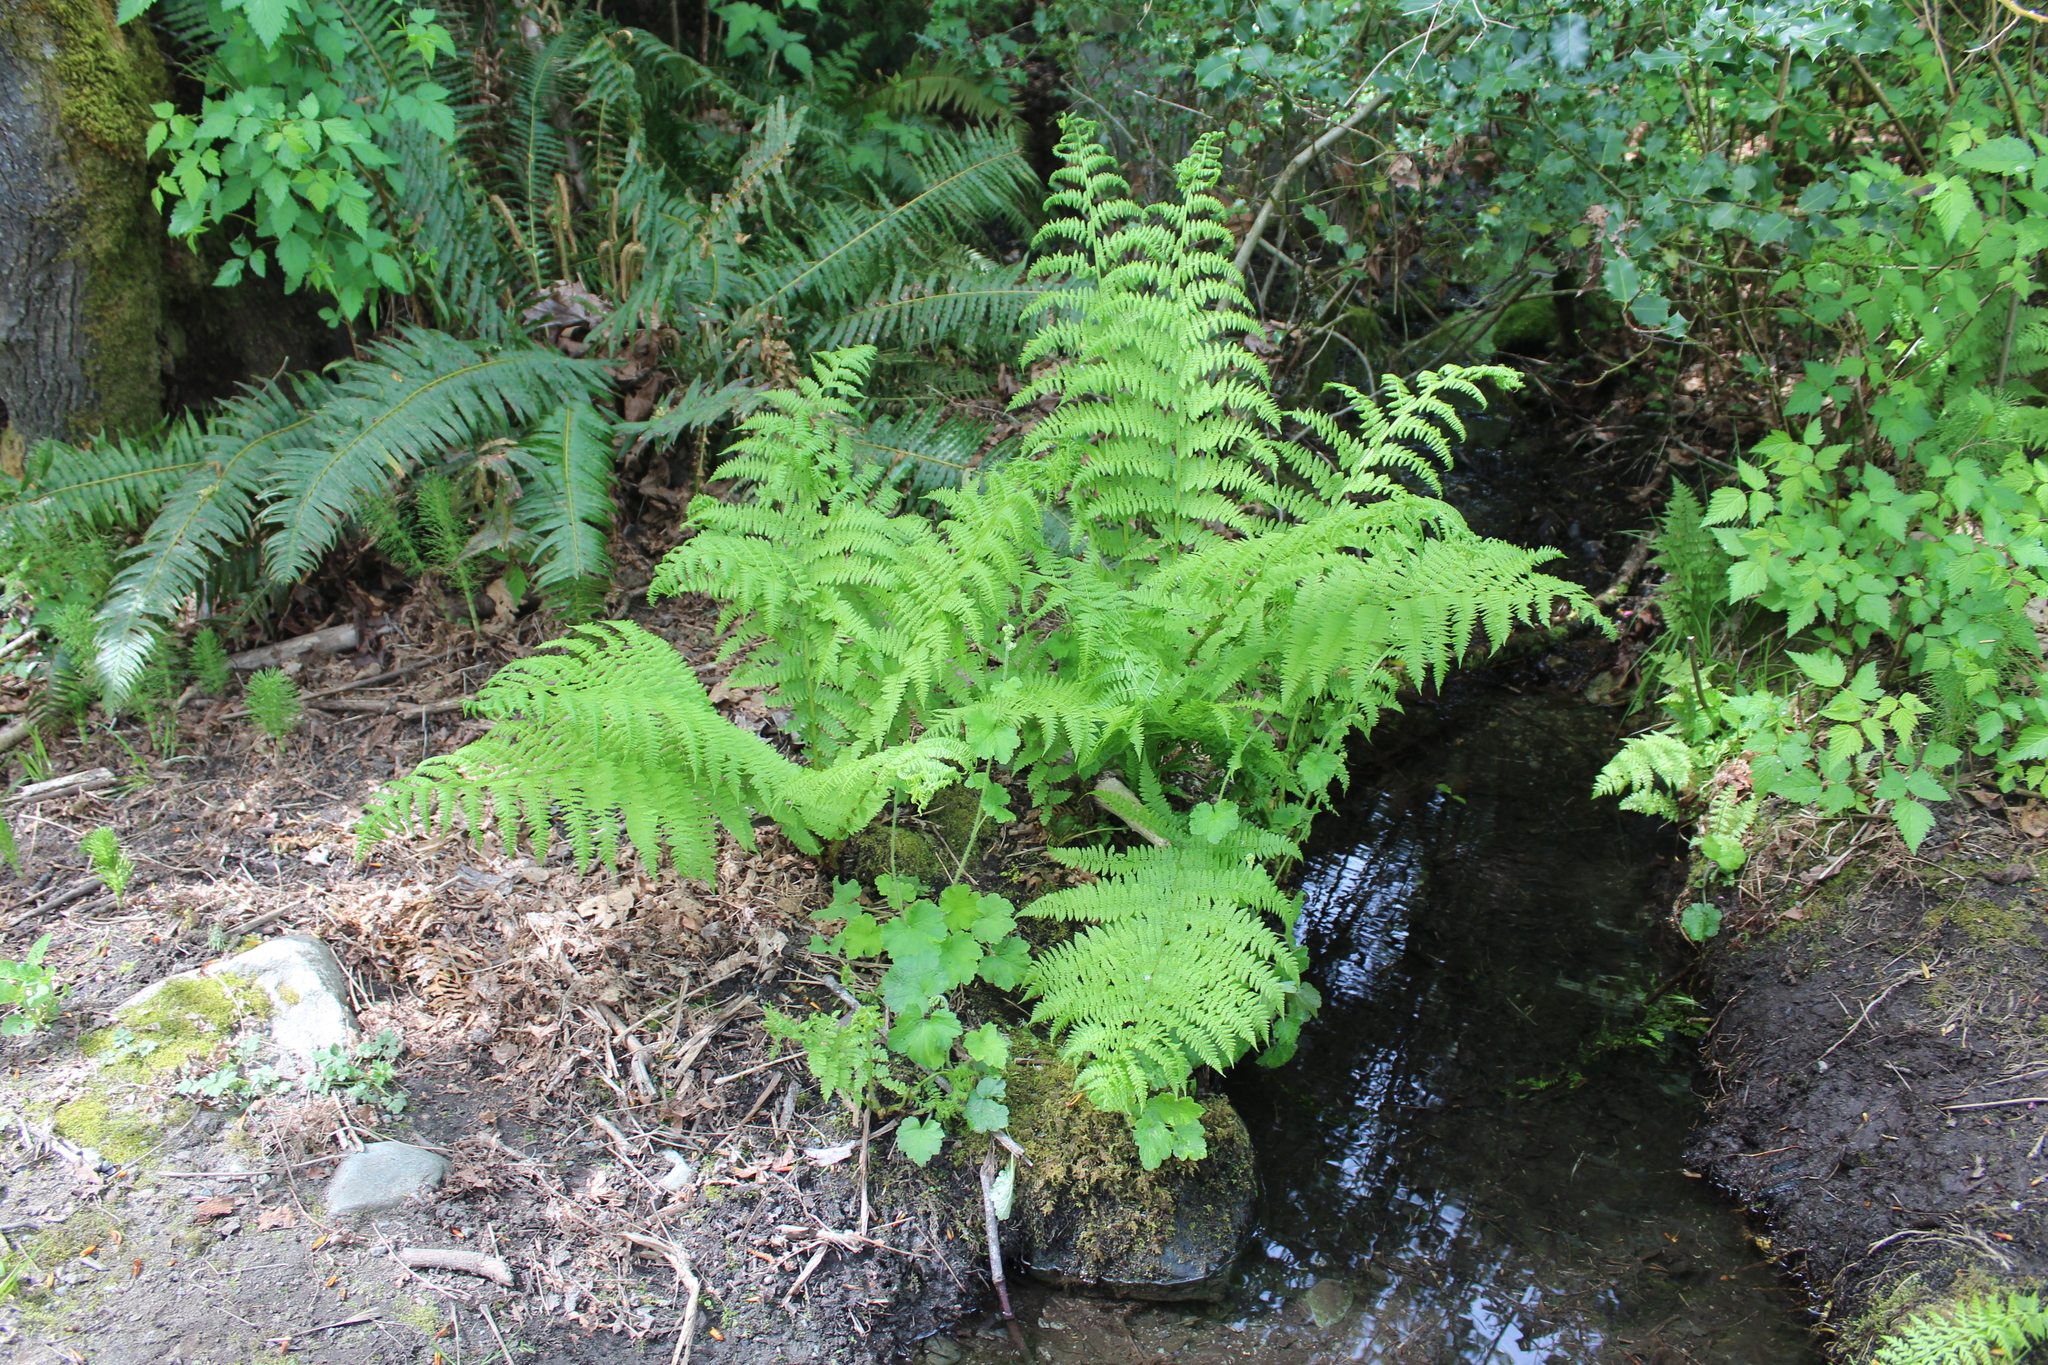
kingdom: Plantae
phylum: Tracheophyta
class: Polypodiopsida
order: Polypodiales
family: Athyriaceae
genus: Athyrium
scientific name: Athyrium filix-femina
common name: Lady fern
